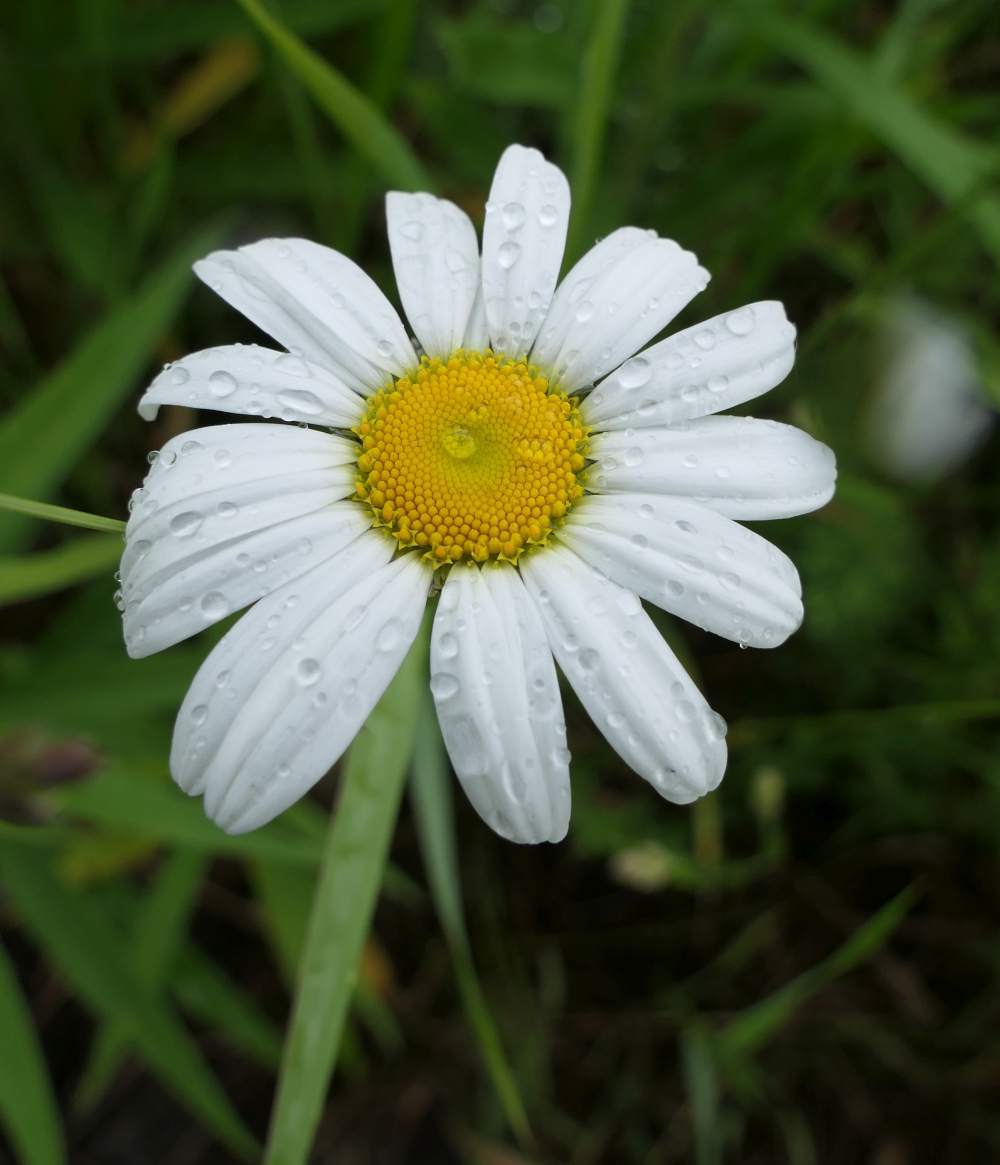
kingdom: Plantae
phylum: Tracheophyta
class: Magnoliopsida
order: Asterales
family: Asteraceae
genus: Leucanthemum
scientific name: Leucanthemum vulgare
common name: Oxeye daisy
